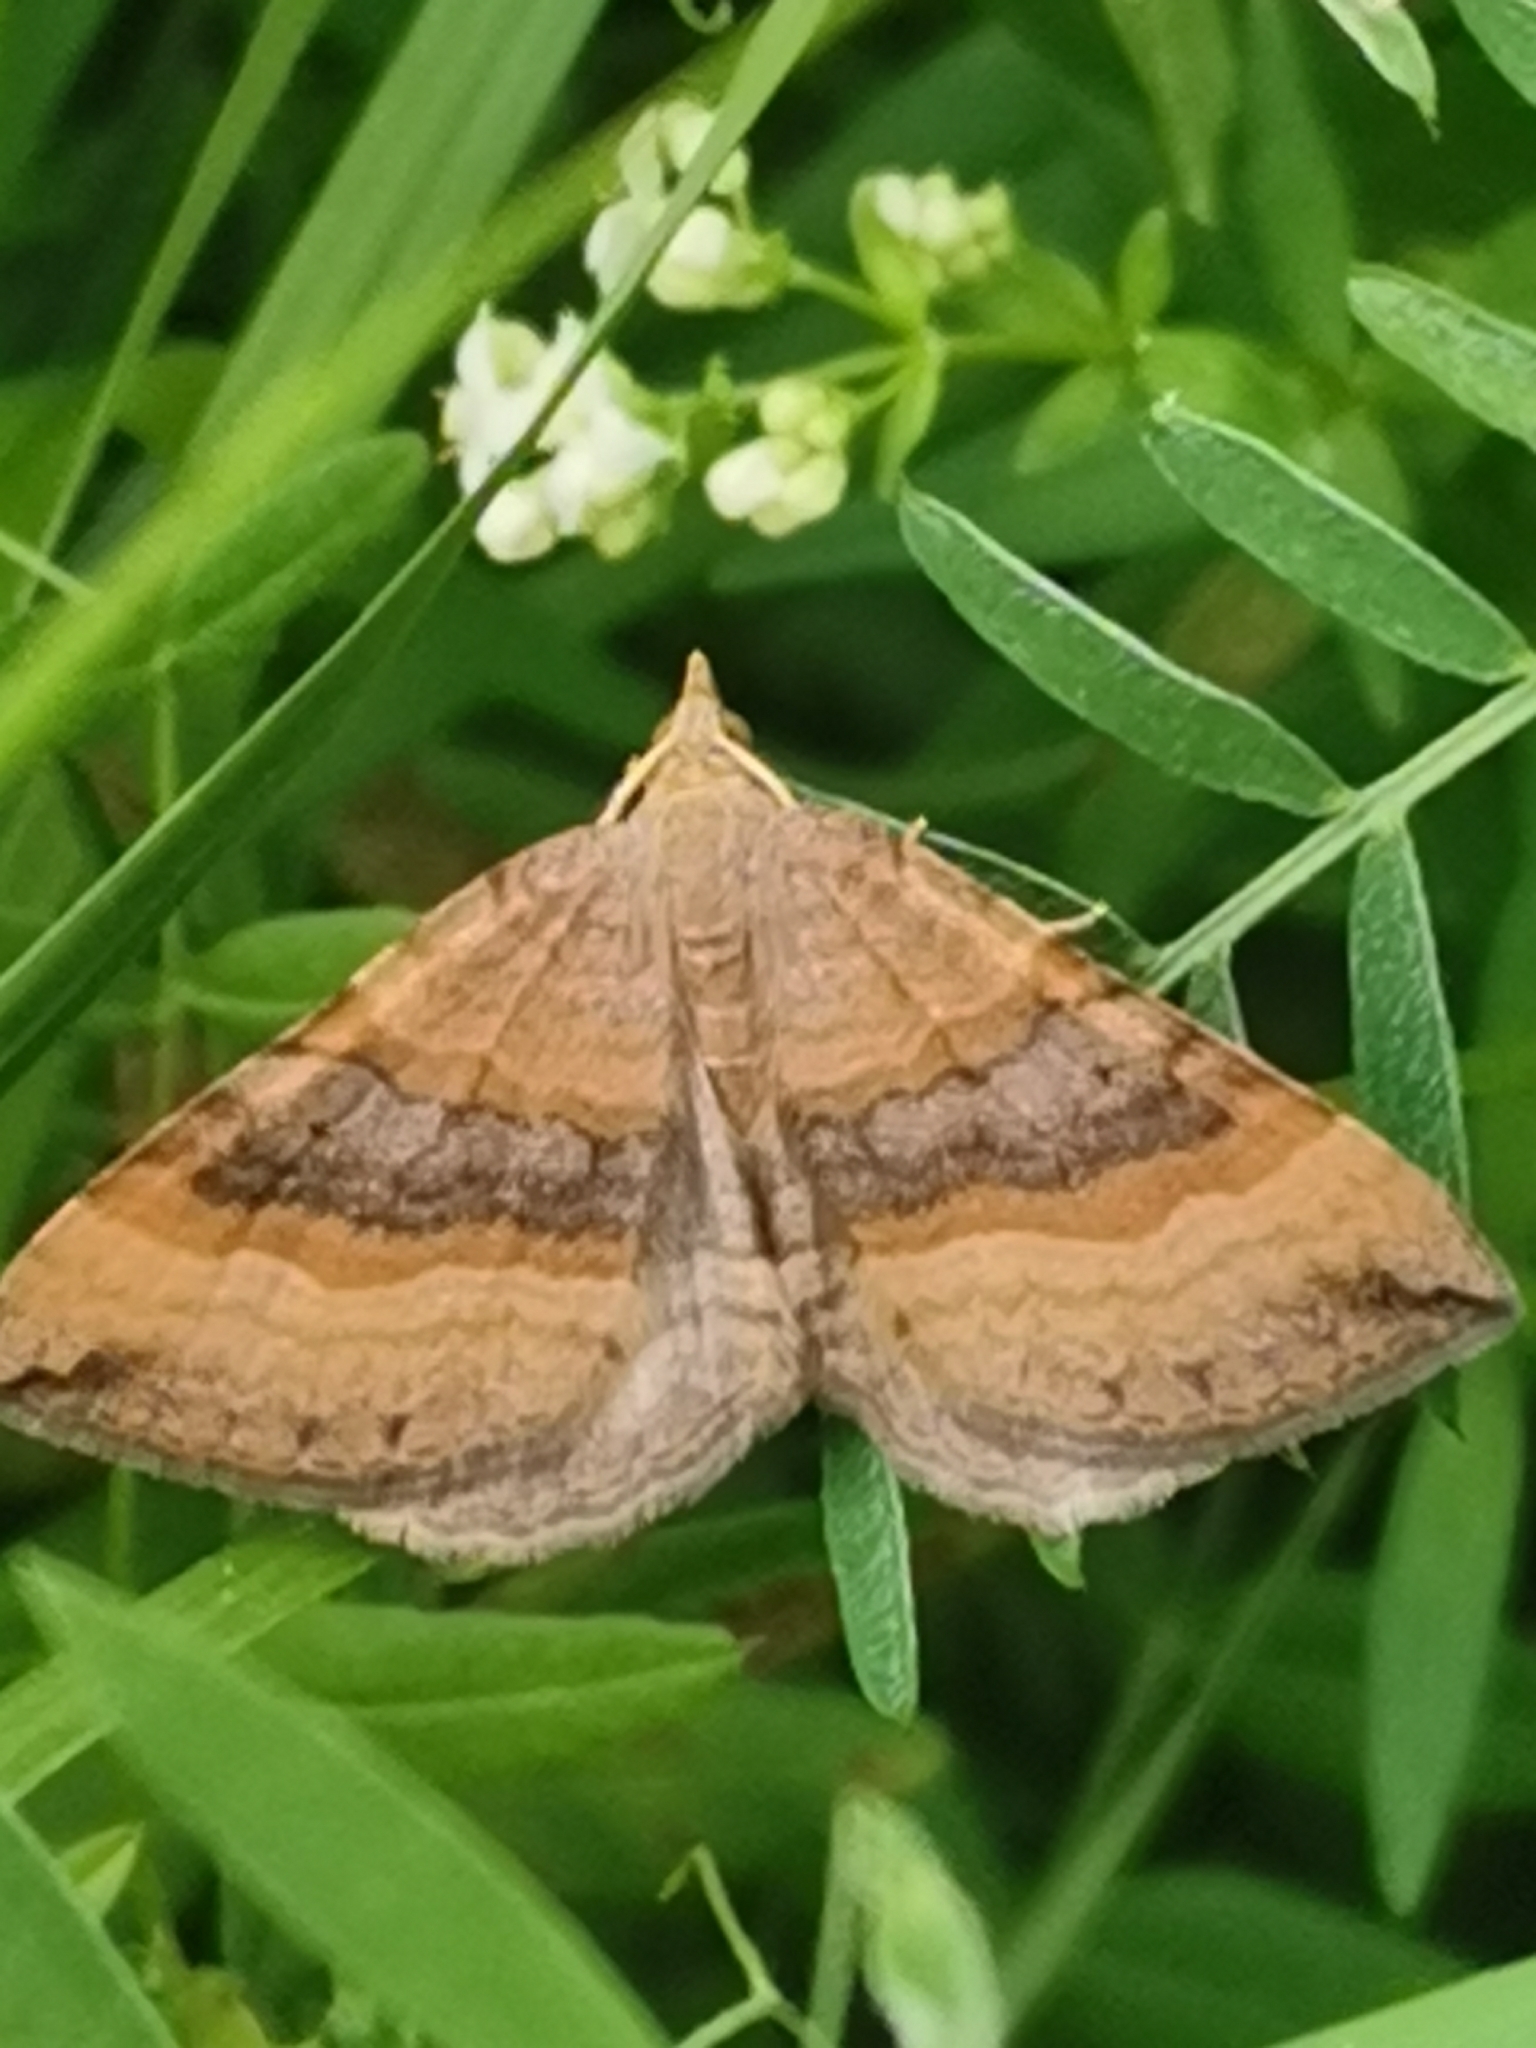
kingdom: Animalia
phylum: Arthropoda
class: Insecta
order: Lepidoptera
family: Geometridae
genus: Scotopteryx
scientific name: Scotopteryx chenopodiata
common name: Shaded broad-bar
